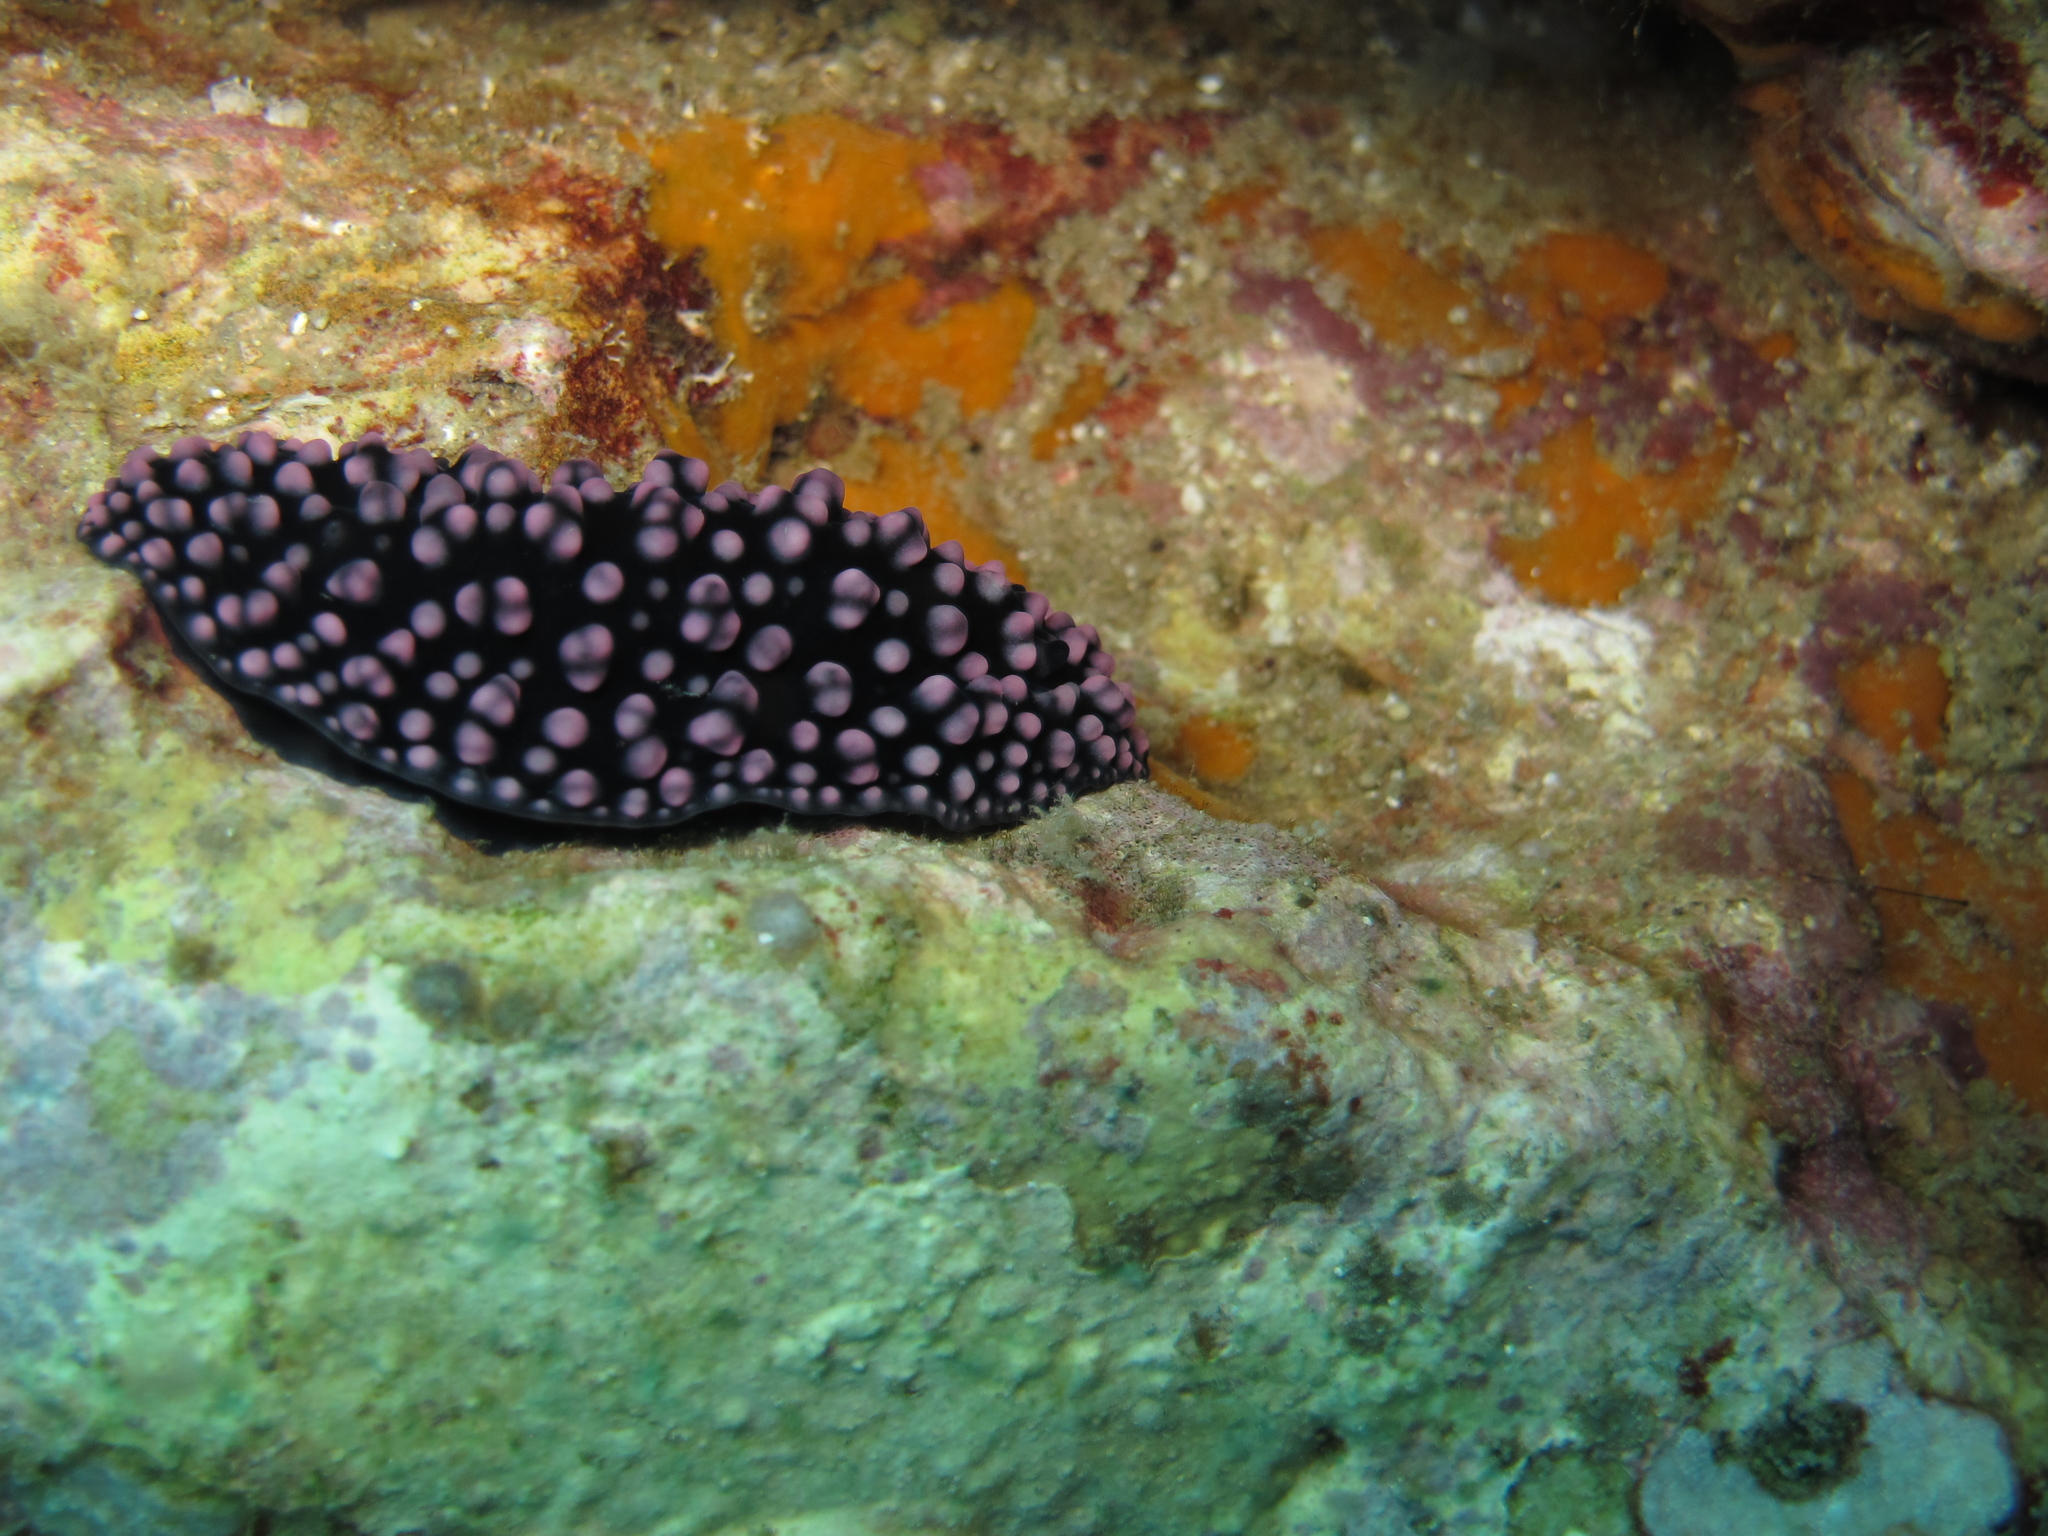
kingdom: Animalia
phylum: Mollusca
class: Gastropoda
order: Nudibranchia
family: Phyllidiidae
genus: Phyllidiella
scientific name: Phyllidiella nigra
